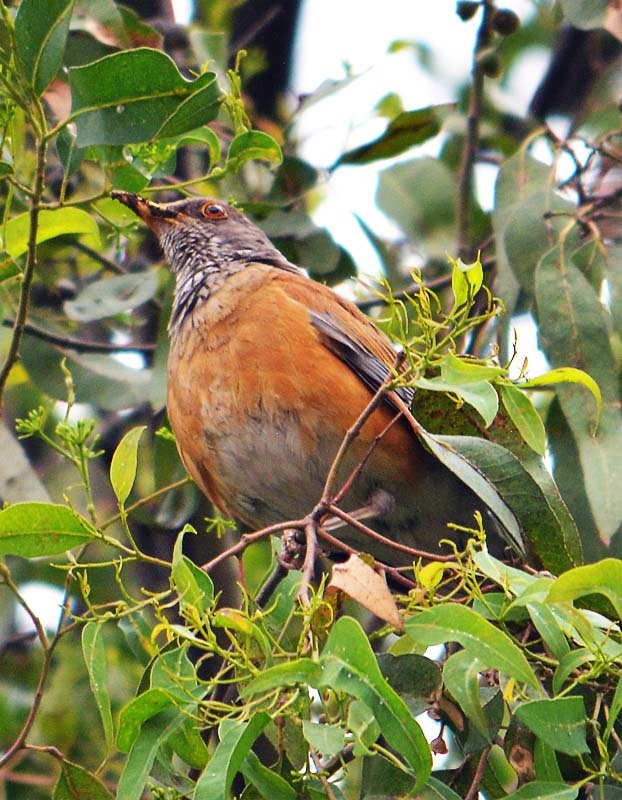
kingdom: Animalia
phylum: Chordata
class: Aves
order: Passeriformes
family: Turdidae
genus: Turdus
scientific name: Turdus rufopalliatus
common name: Rufous-backed robin
